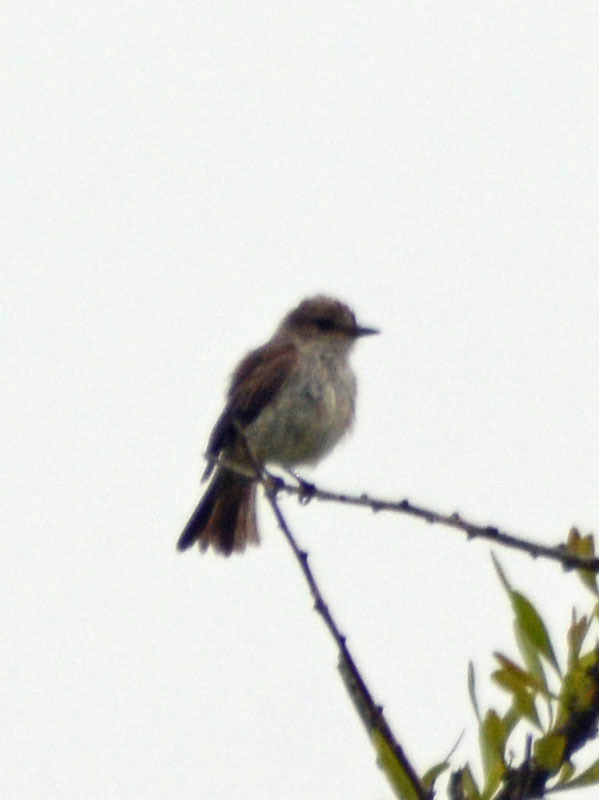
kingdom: Animalia
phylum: Chordata
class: Aves
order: Passeriformes
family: Tyrannidae
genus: Pyrocephalus
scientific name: Pyrocephalus rubinus
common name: Vermilion flycatcher
